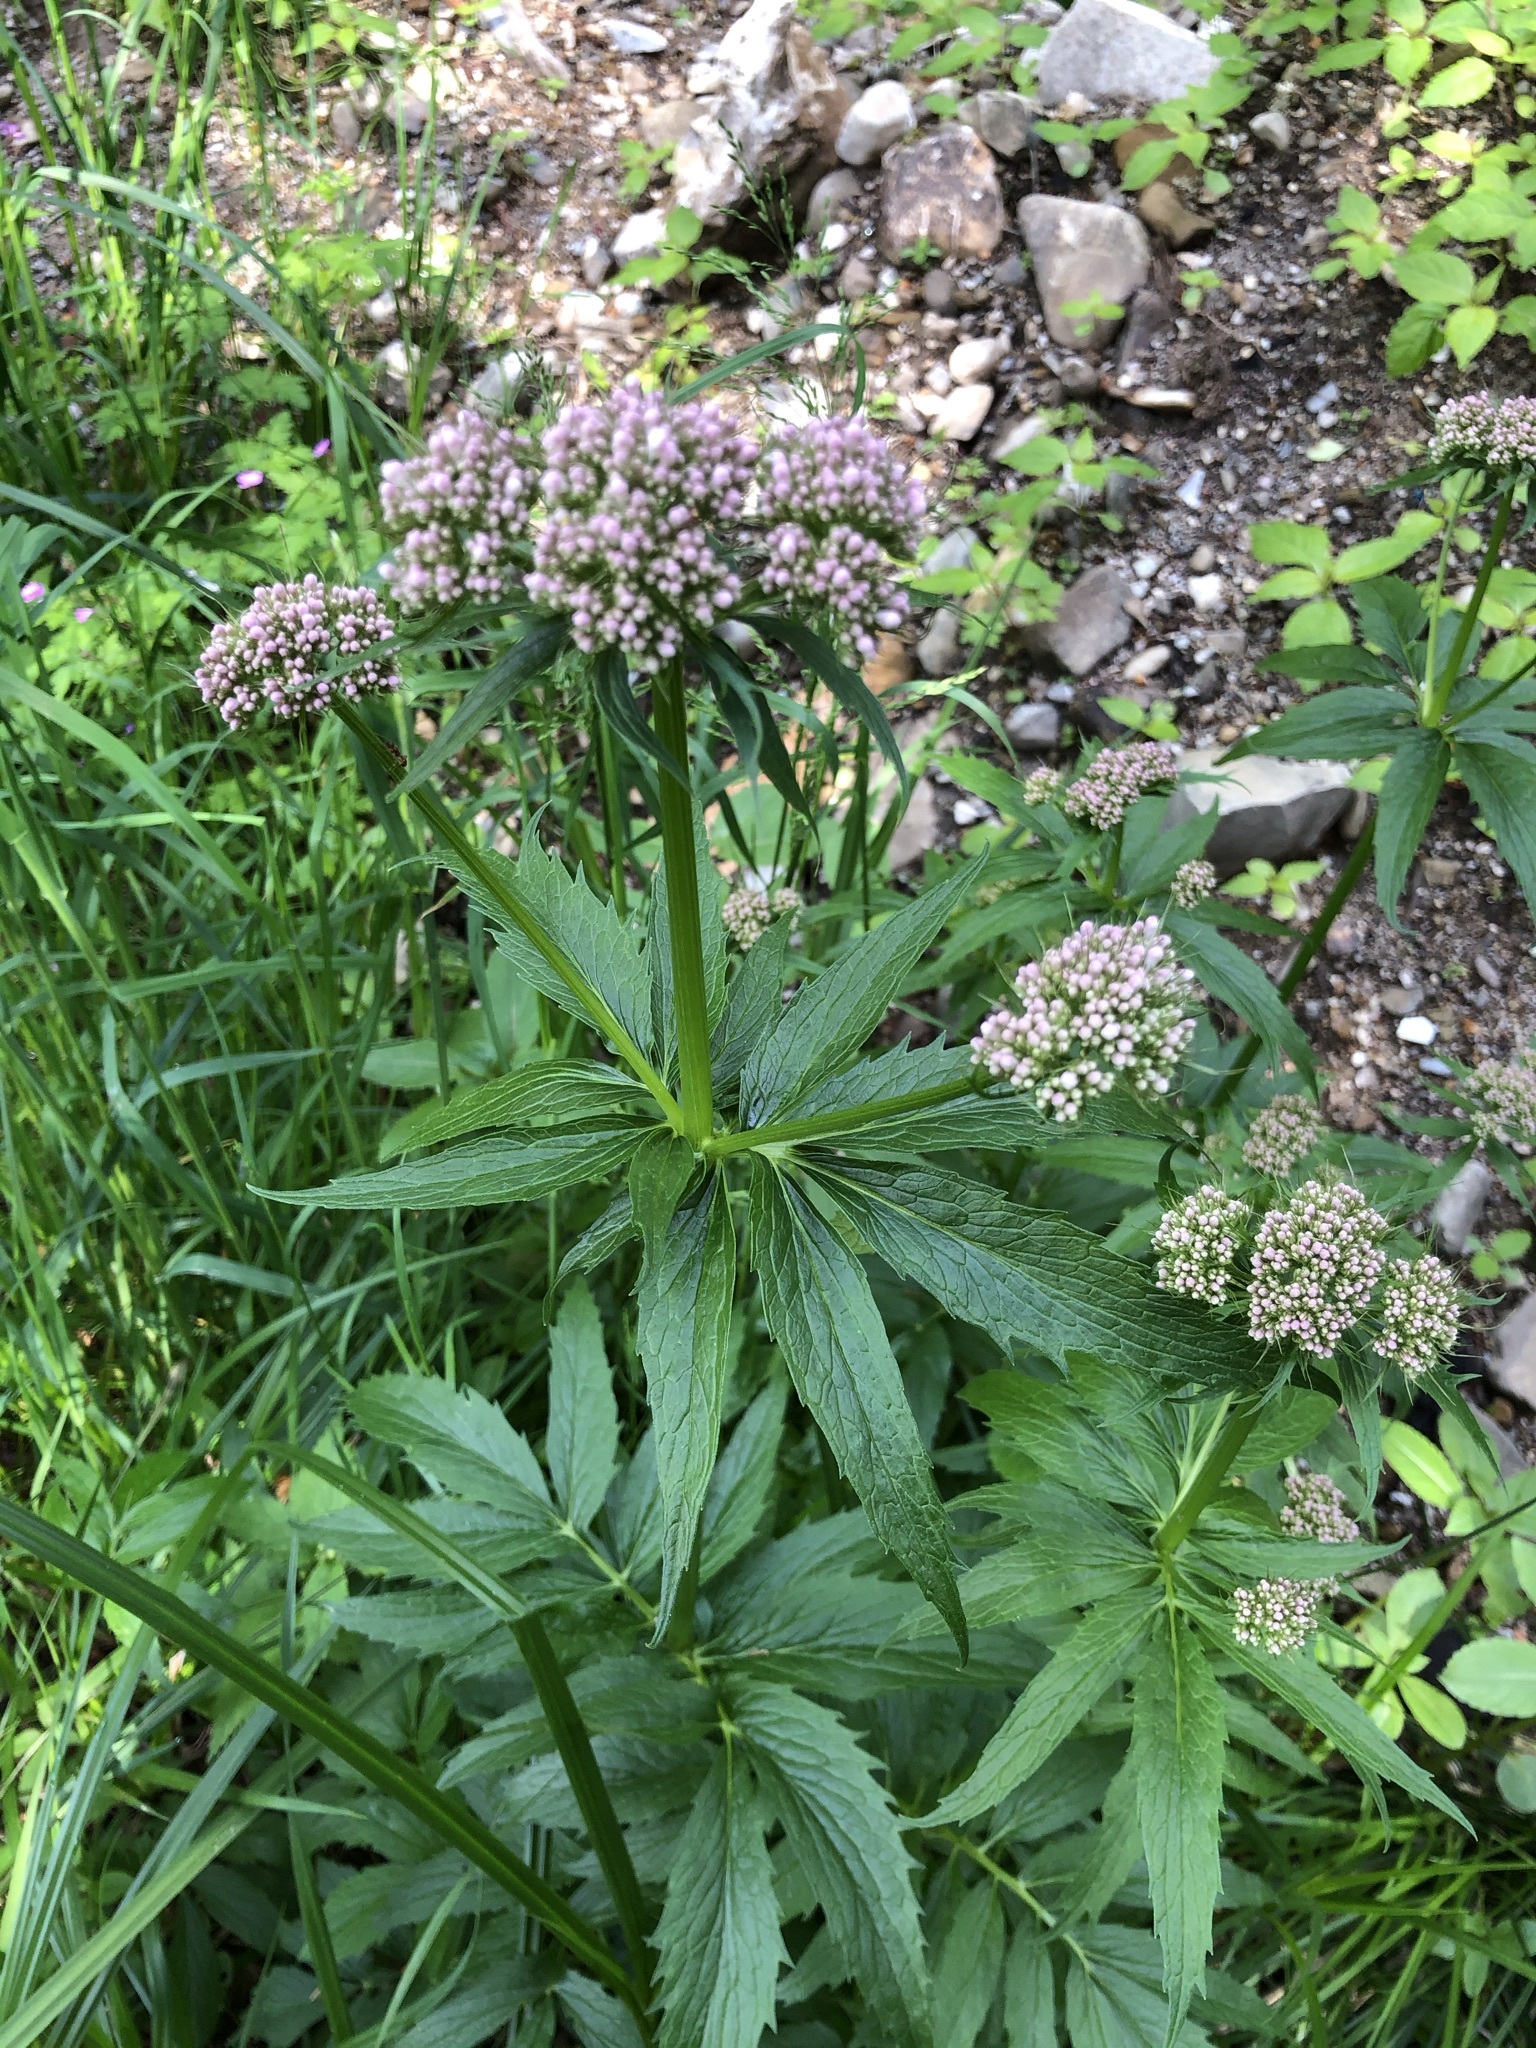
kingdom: Plantae
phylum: Tracheophyta
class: Magnoliopsida
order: Dipsacales
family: Caprifoliaceae
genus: Valeriana
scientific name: Valeriana officinalis
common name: Common valerian
